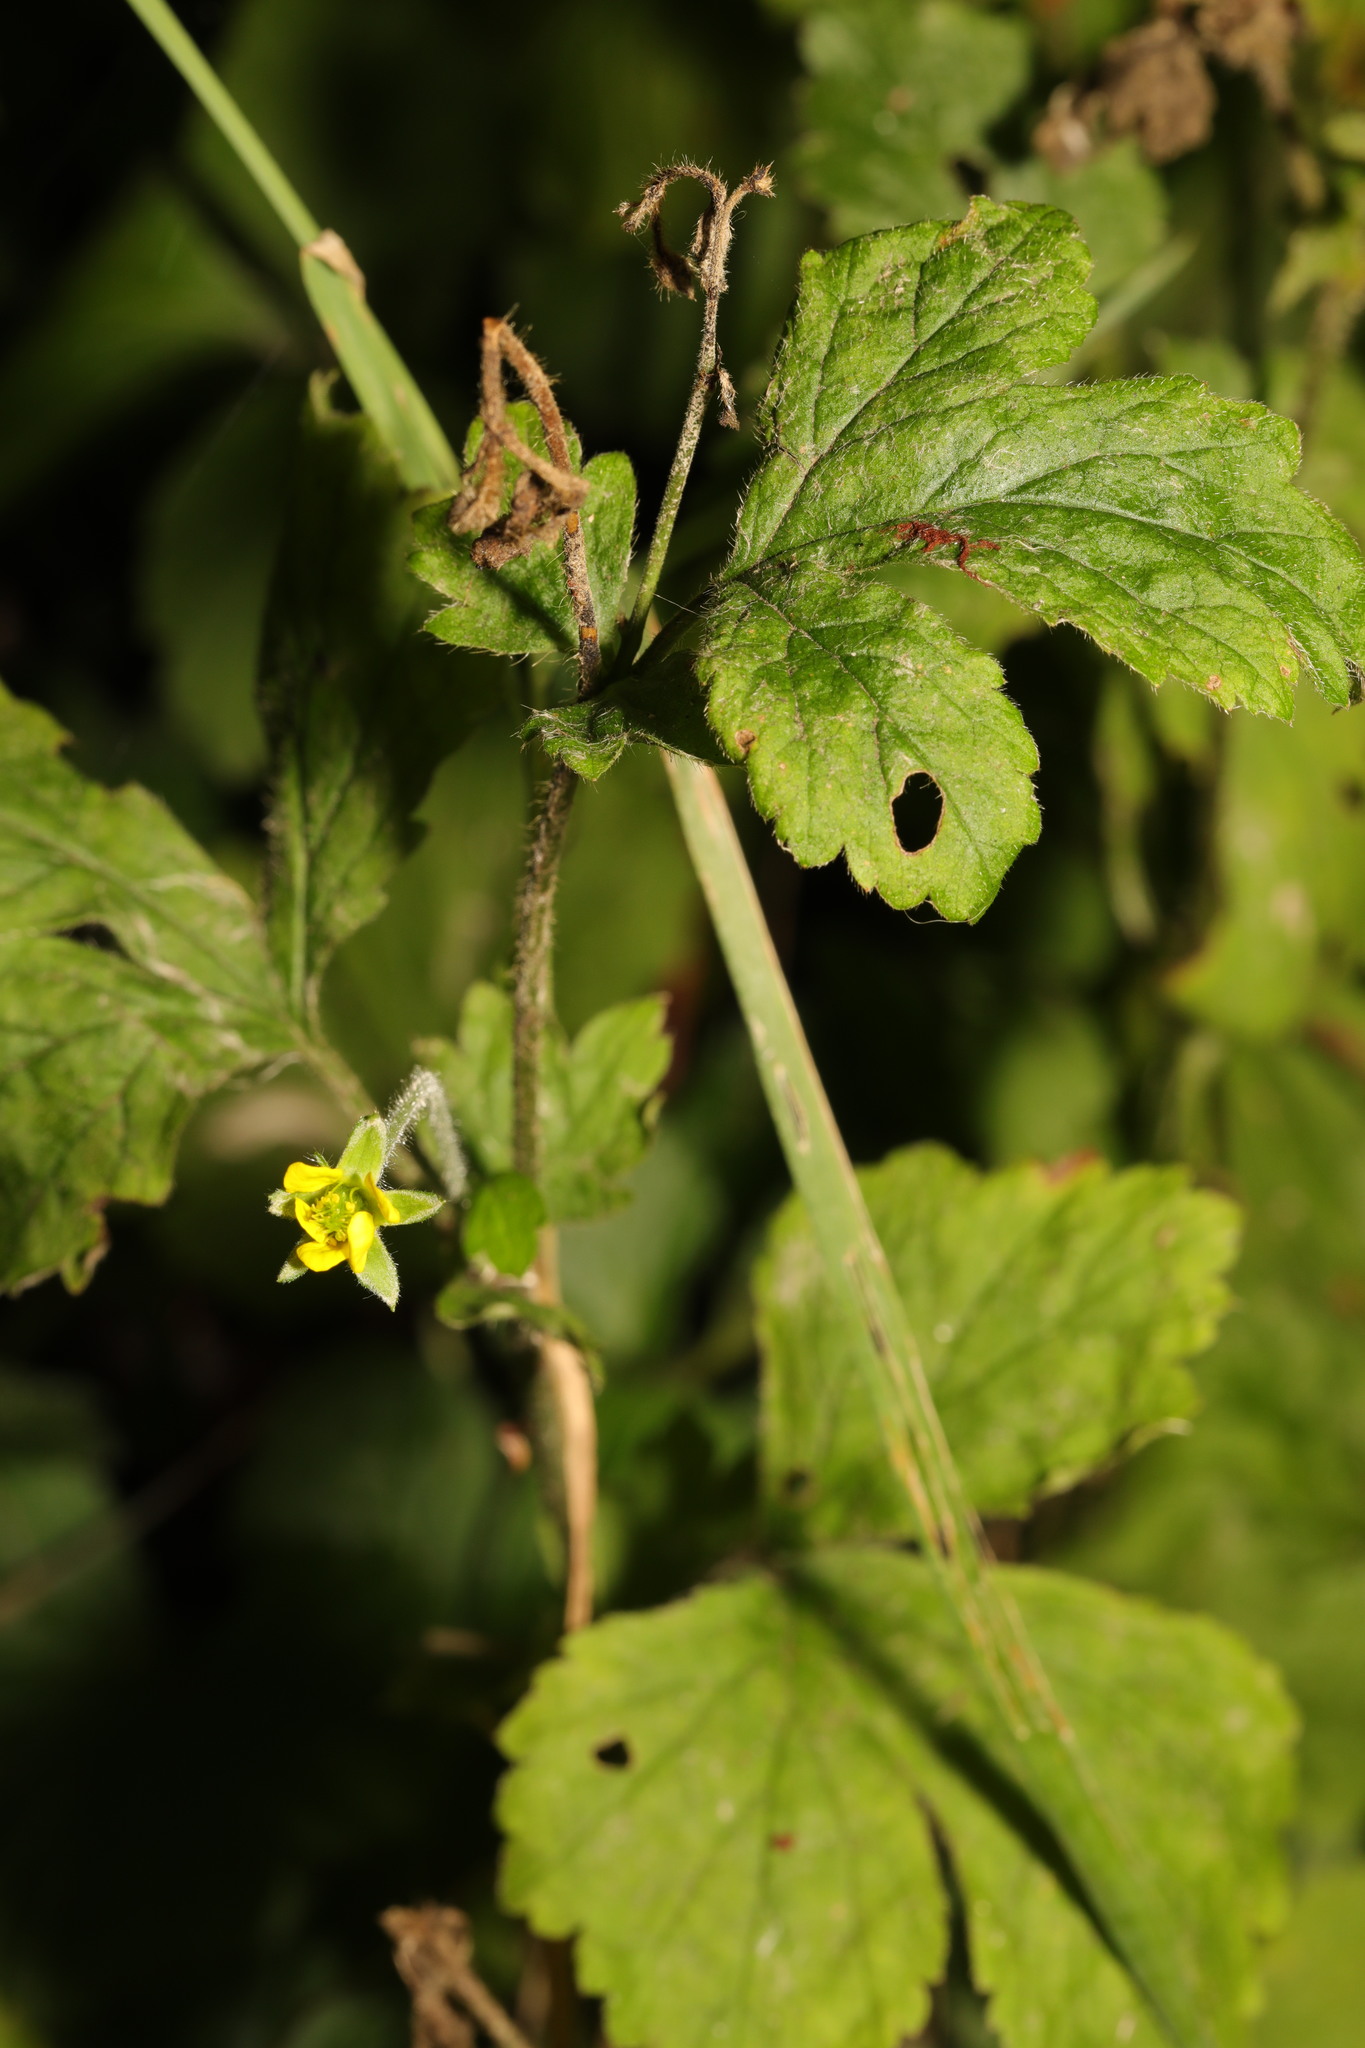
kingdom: Plantae
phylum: Tracheophyta
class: Magnoliopsida
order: Rosales
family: Rosaceae
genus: Geum
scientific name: Geum urbanum
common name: Wood avens
